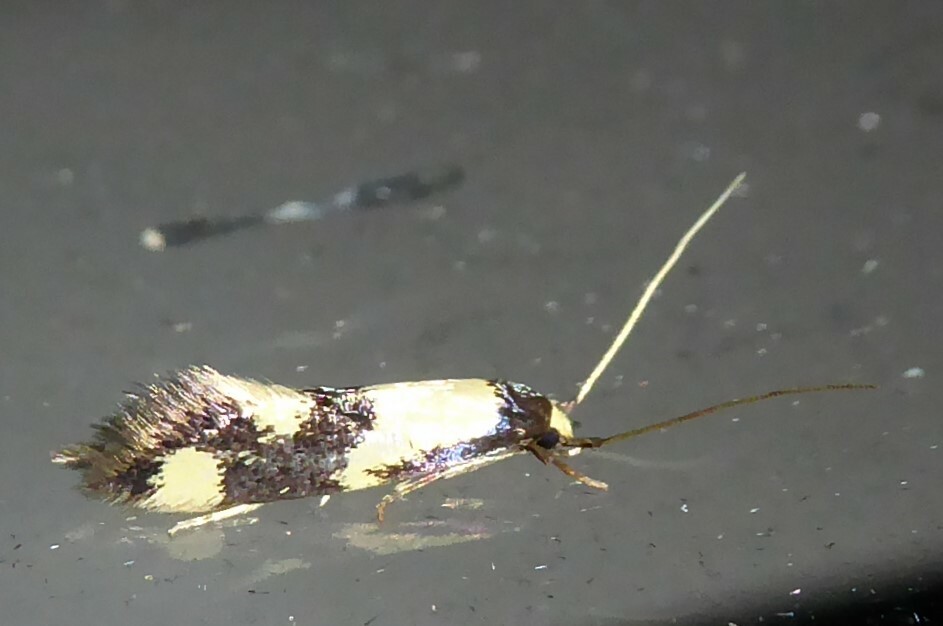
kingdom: Animalia
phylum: Arthropoda
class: Insecta
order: Lepidoptera
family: Tineidae
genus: Opogona
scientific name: Opogona comptella
